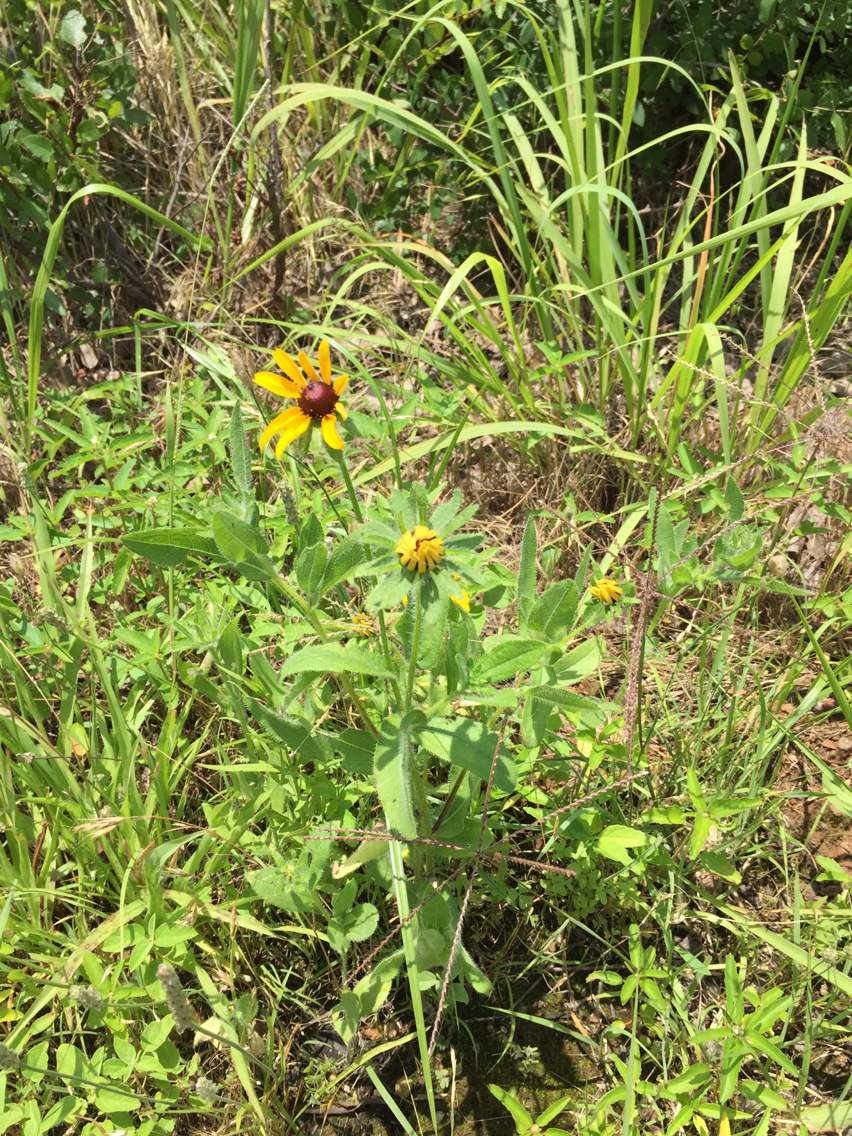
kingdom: Plantae
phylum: Tracheophyta
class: Magnoliopsida
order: Asterales
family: Asteraceae
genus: Rudbeckia
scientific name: Rudbeckia hirta
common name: Black-eyed-susan
